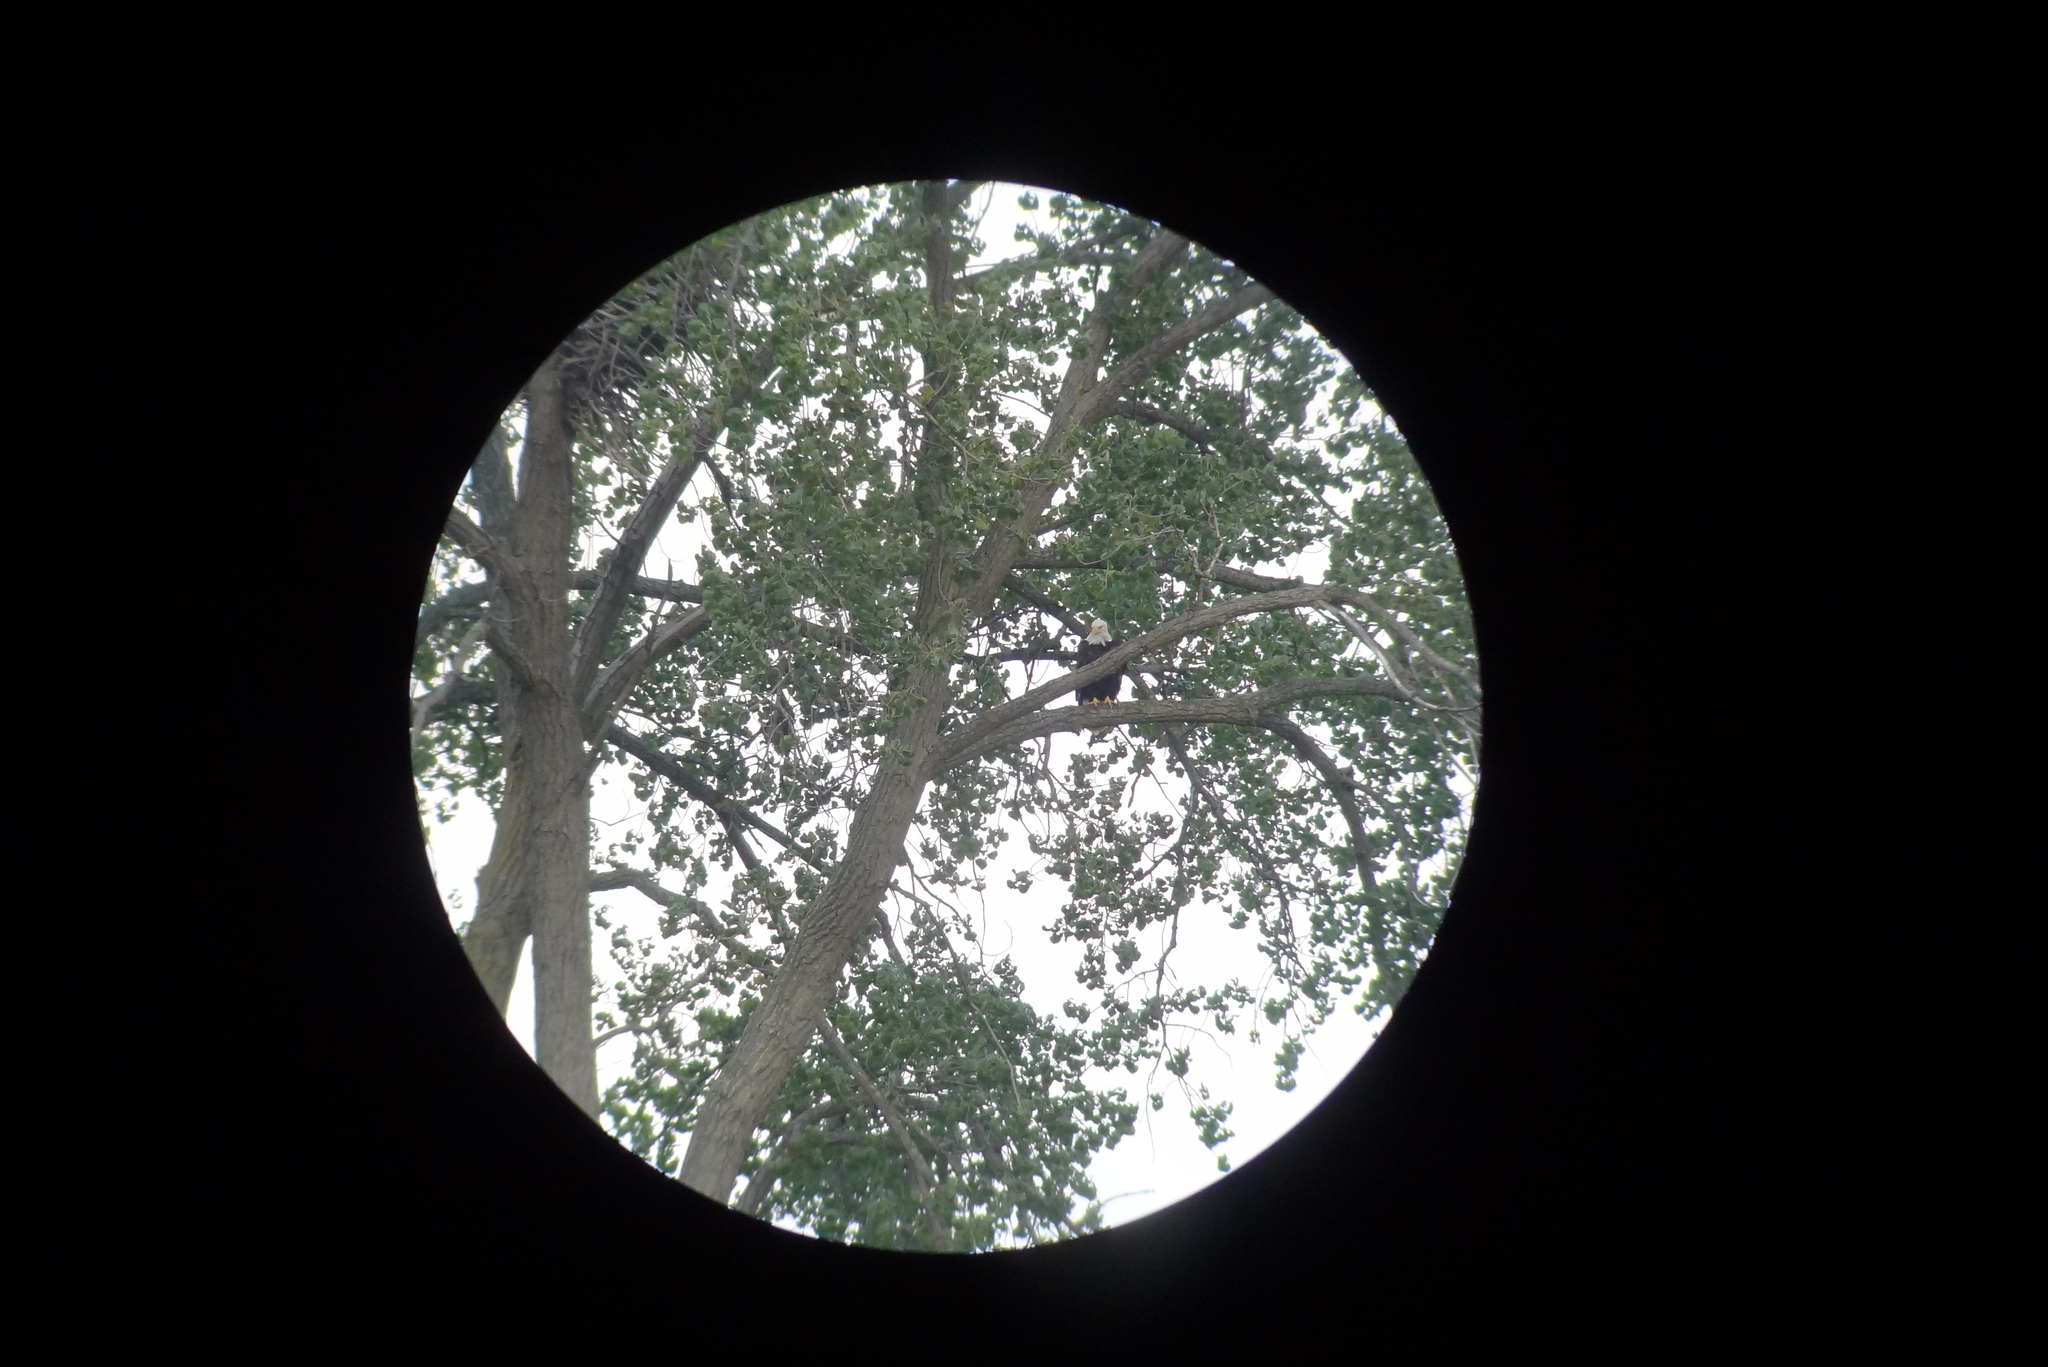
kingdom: Animalia
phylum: Chordata
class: Aves
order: Accipitriformes
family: Accipitridae
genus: Haliaeetus
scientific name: Haliaeetus leucocephalus
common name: Bald eagle
